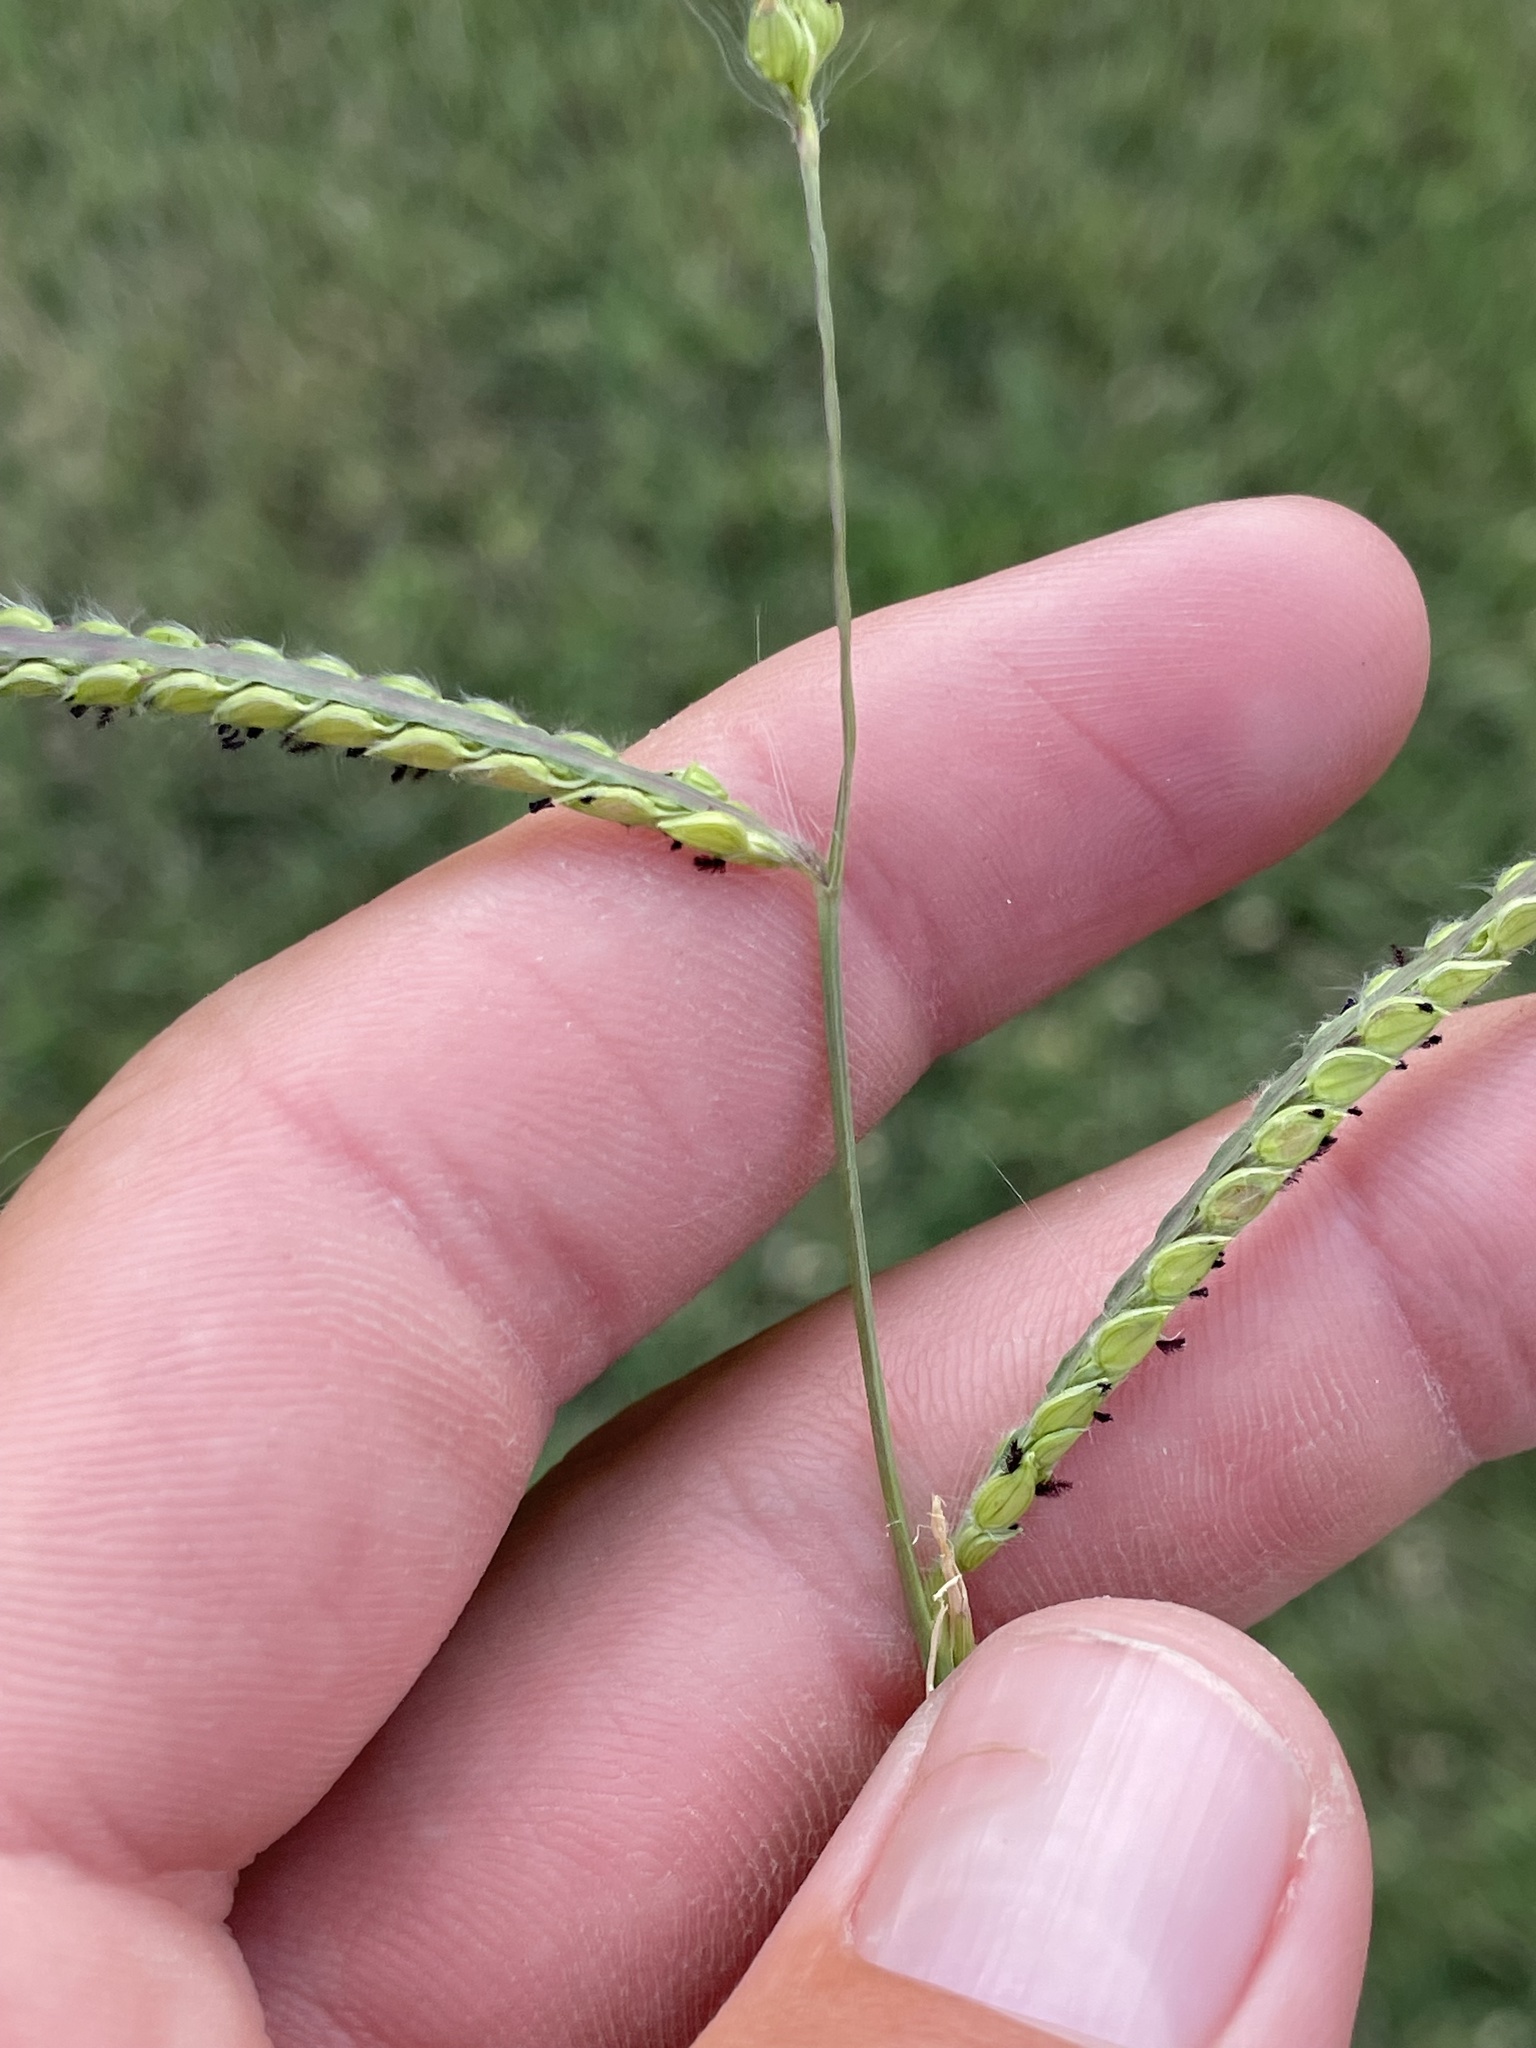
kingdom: Plantae
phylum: Tracheophyta
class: Liliopsida
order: Poales
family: Poaceae
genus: Paspalum
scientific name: Paspalum dilatatum
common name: Dallisgrass
